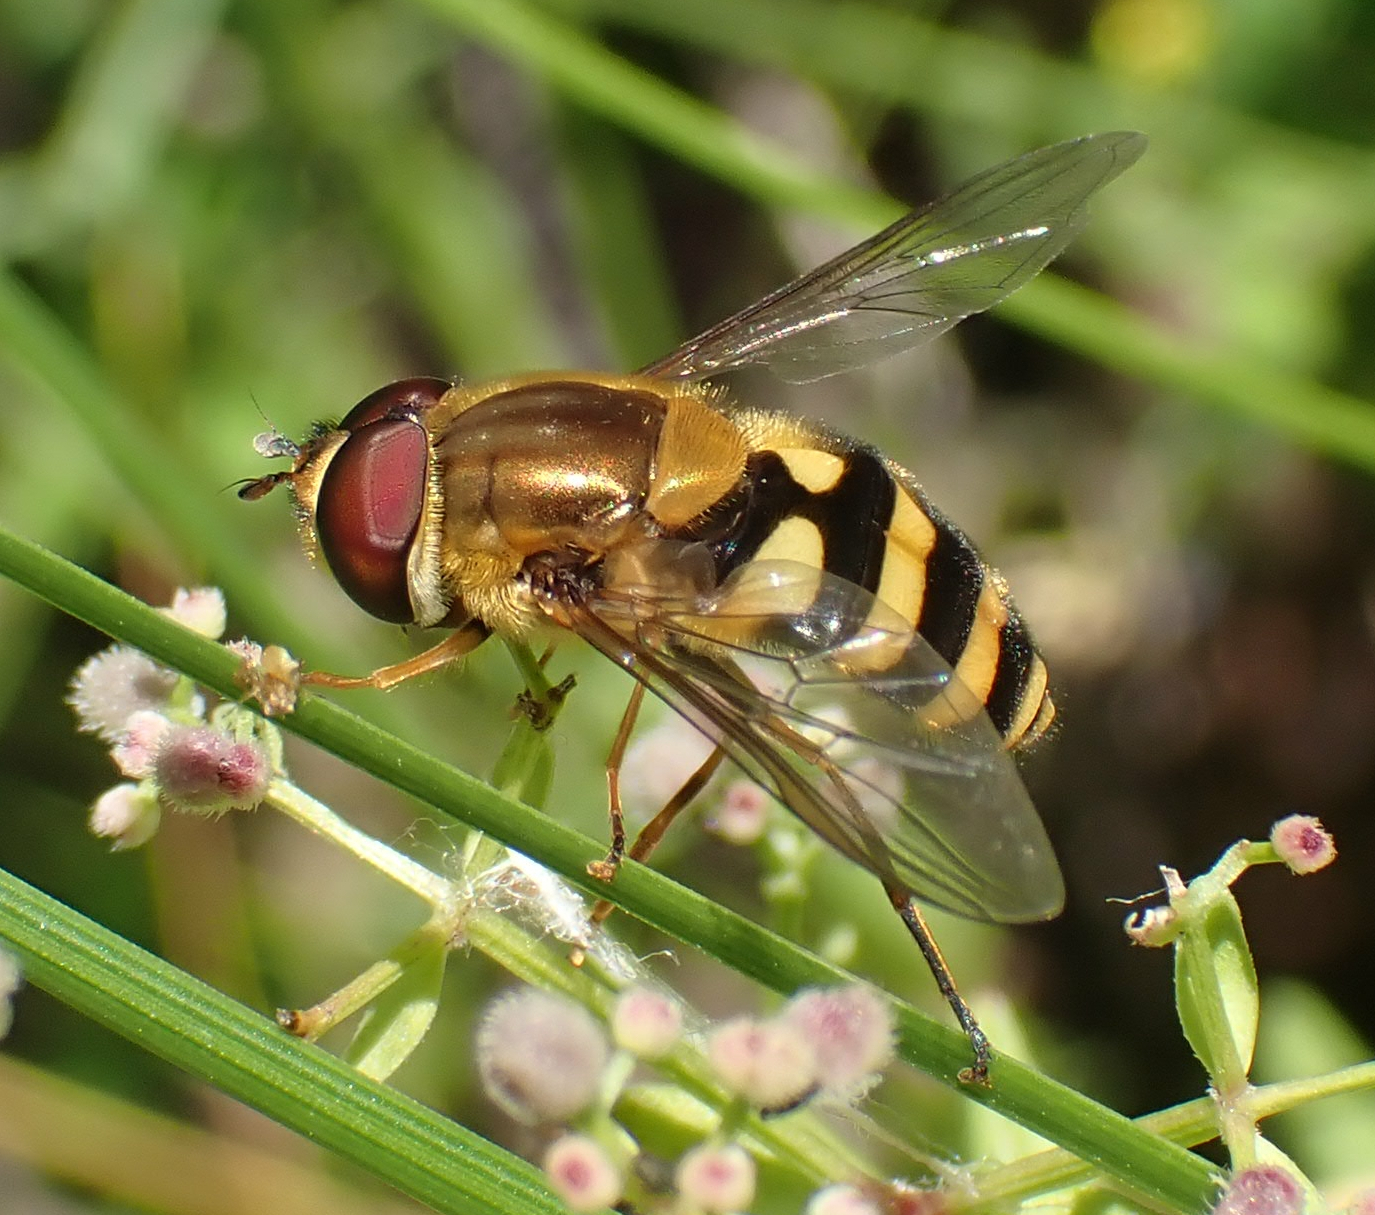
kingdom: Animalia
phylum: Arthropoda
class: Insecta
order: Diptera
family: Syrphidae
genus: Syrphus
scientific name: Syrphus
